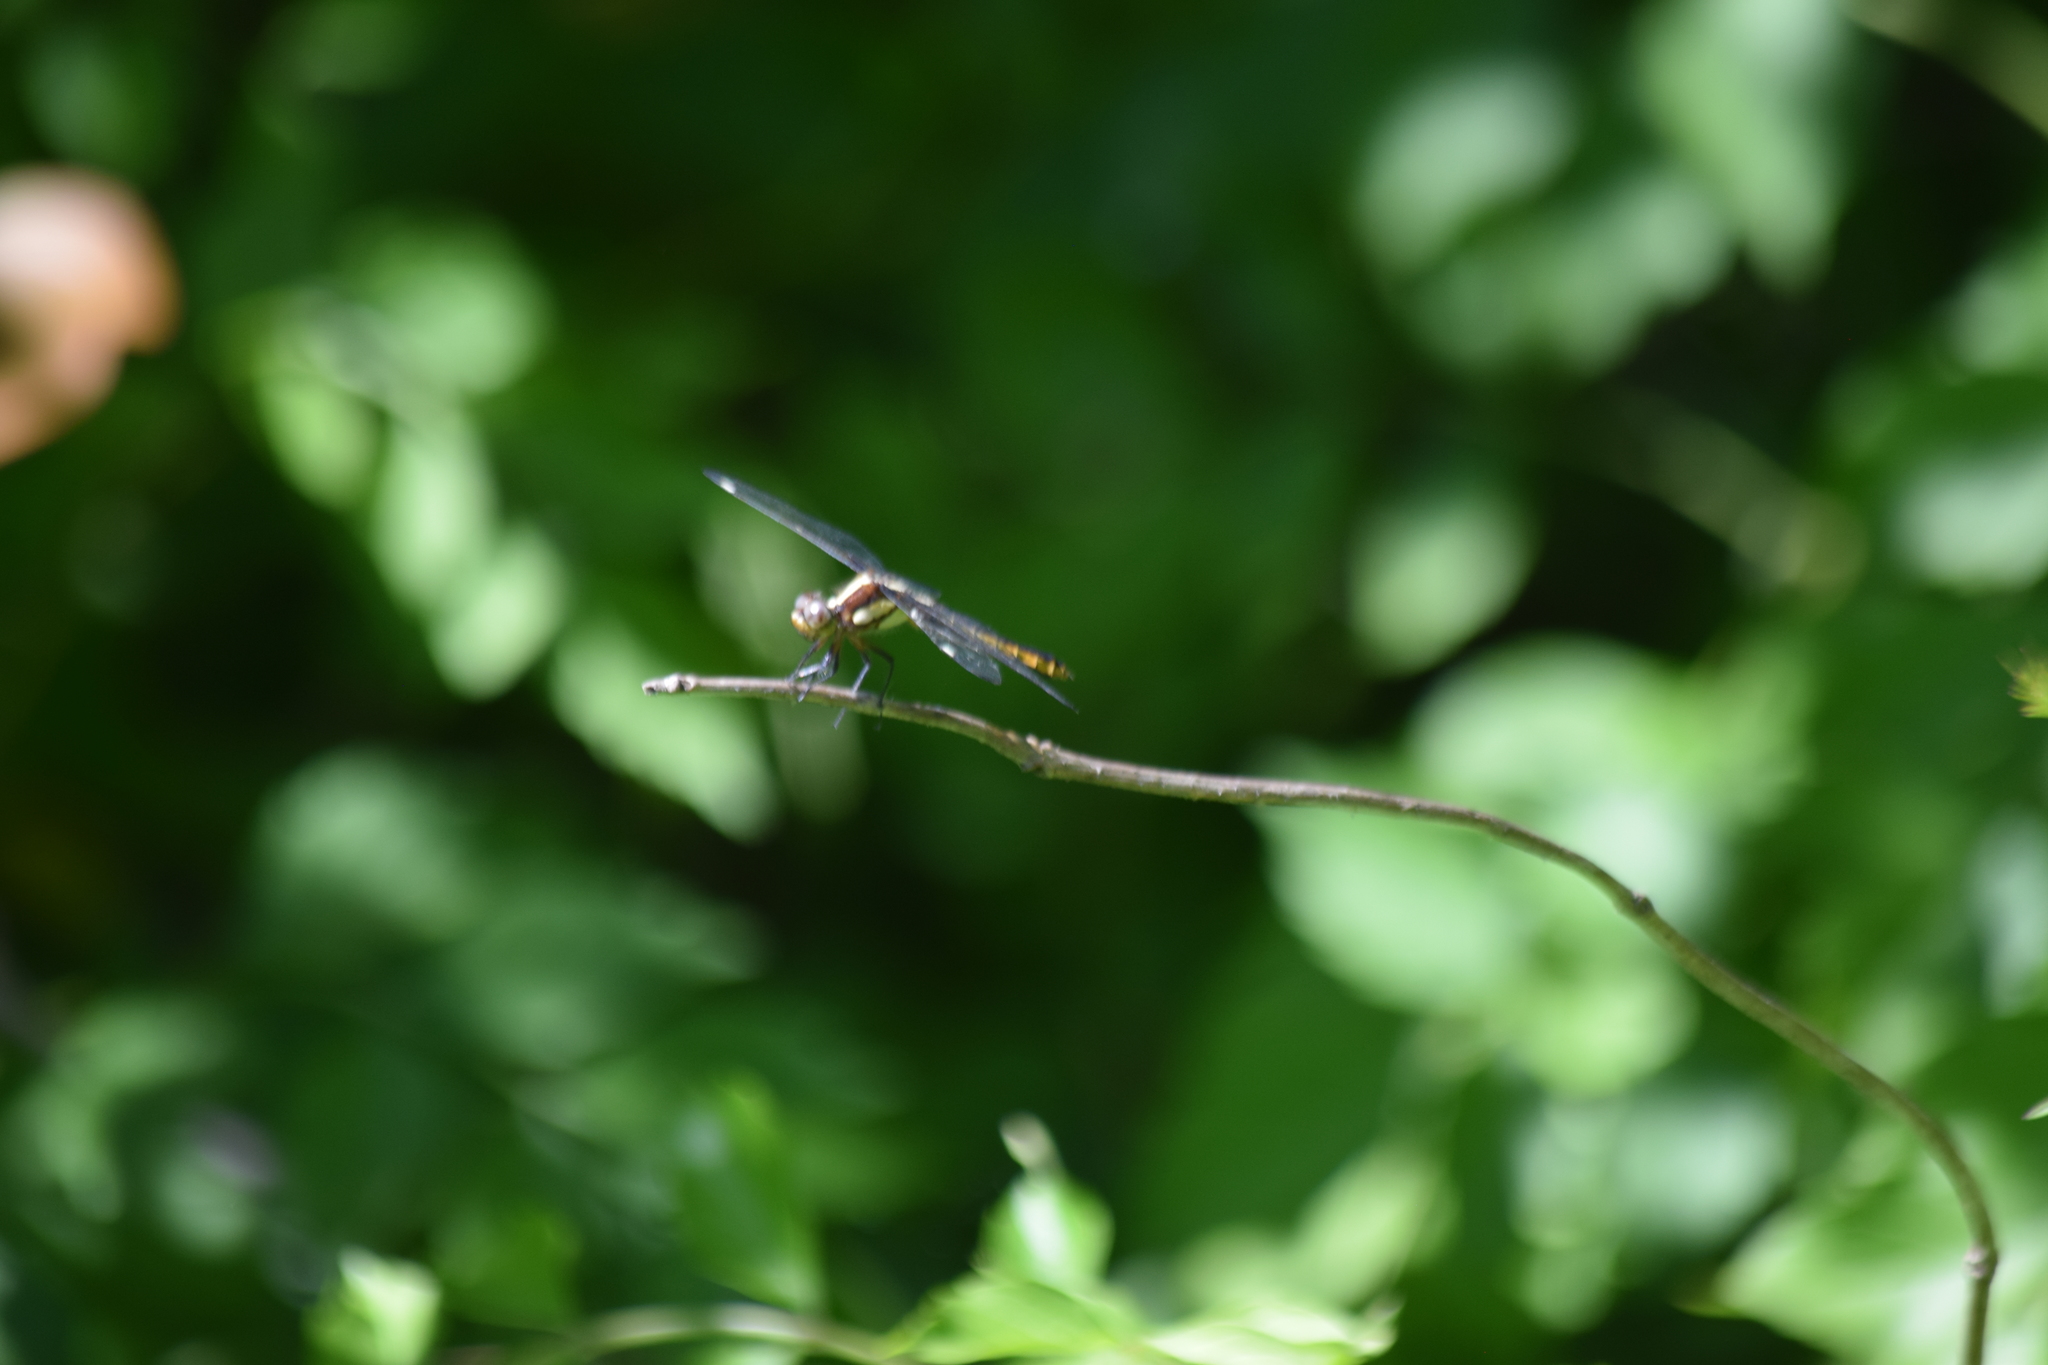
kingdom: Animalia
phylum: Arthropoda
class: Insecta
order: Odonata
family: Libellulidae
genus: Libellula
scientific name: Libellula cyanea
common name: Spangled skimmer
